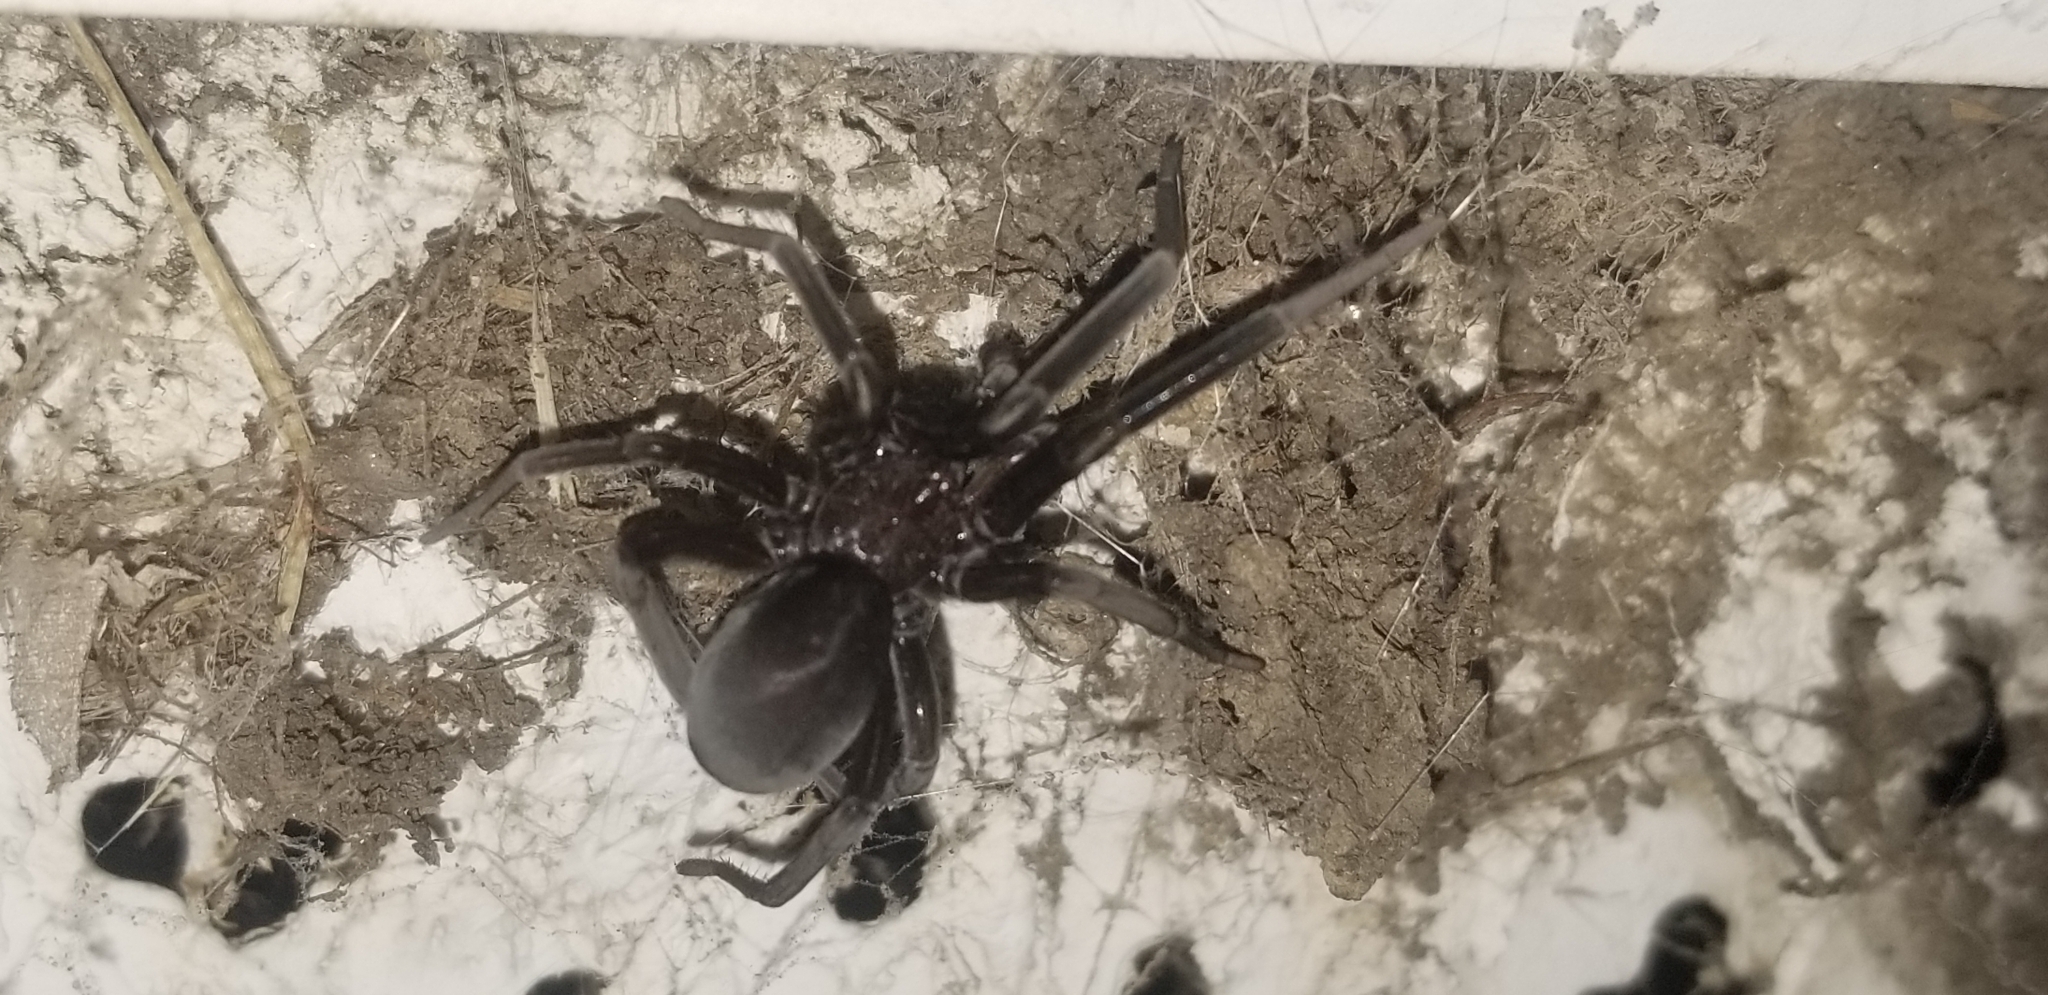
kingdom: Animalia
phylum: Arthropoda
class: Arachnida
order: Araneae
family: Filistatidae
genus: Kukulcania
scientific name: Kukulcania
